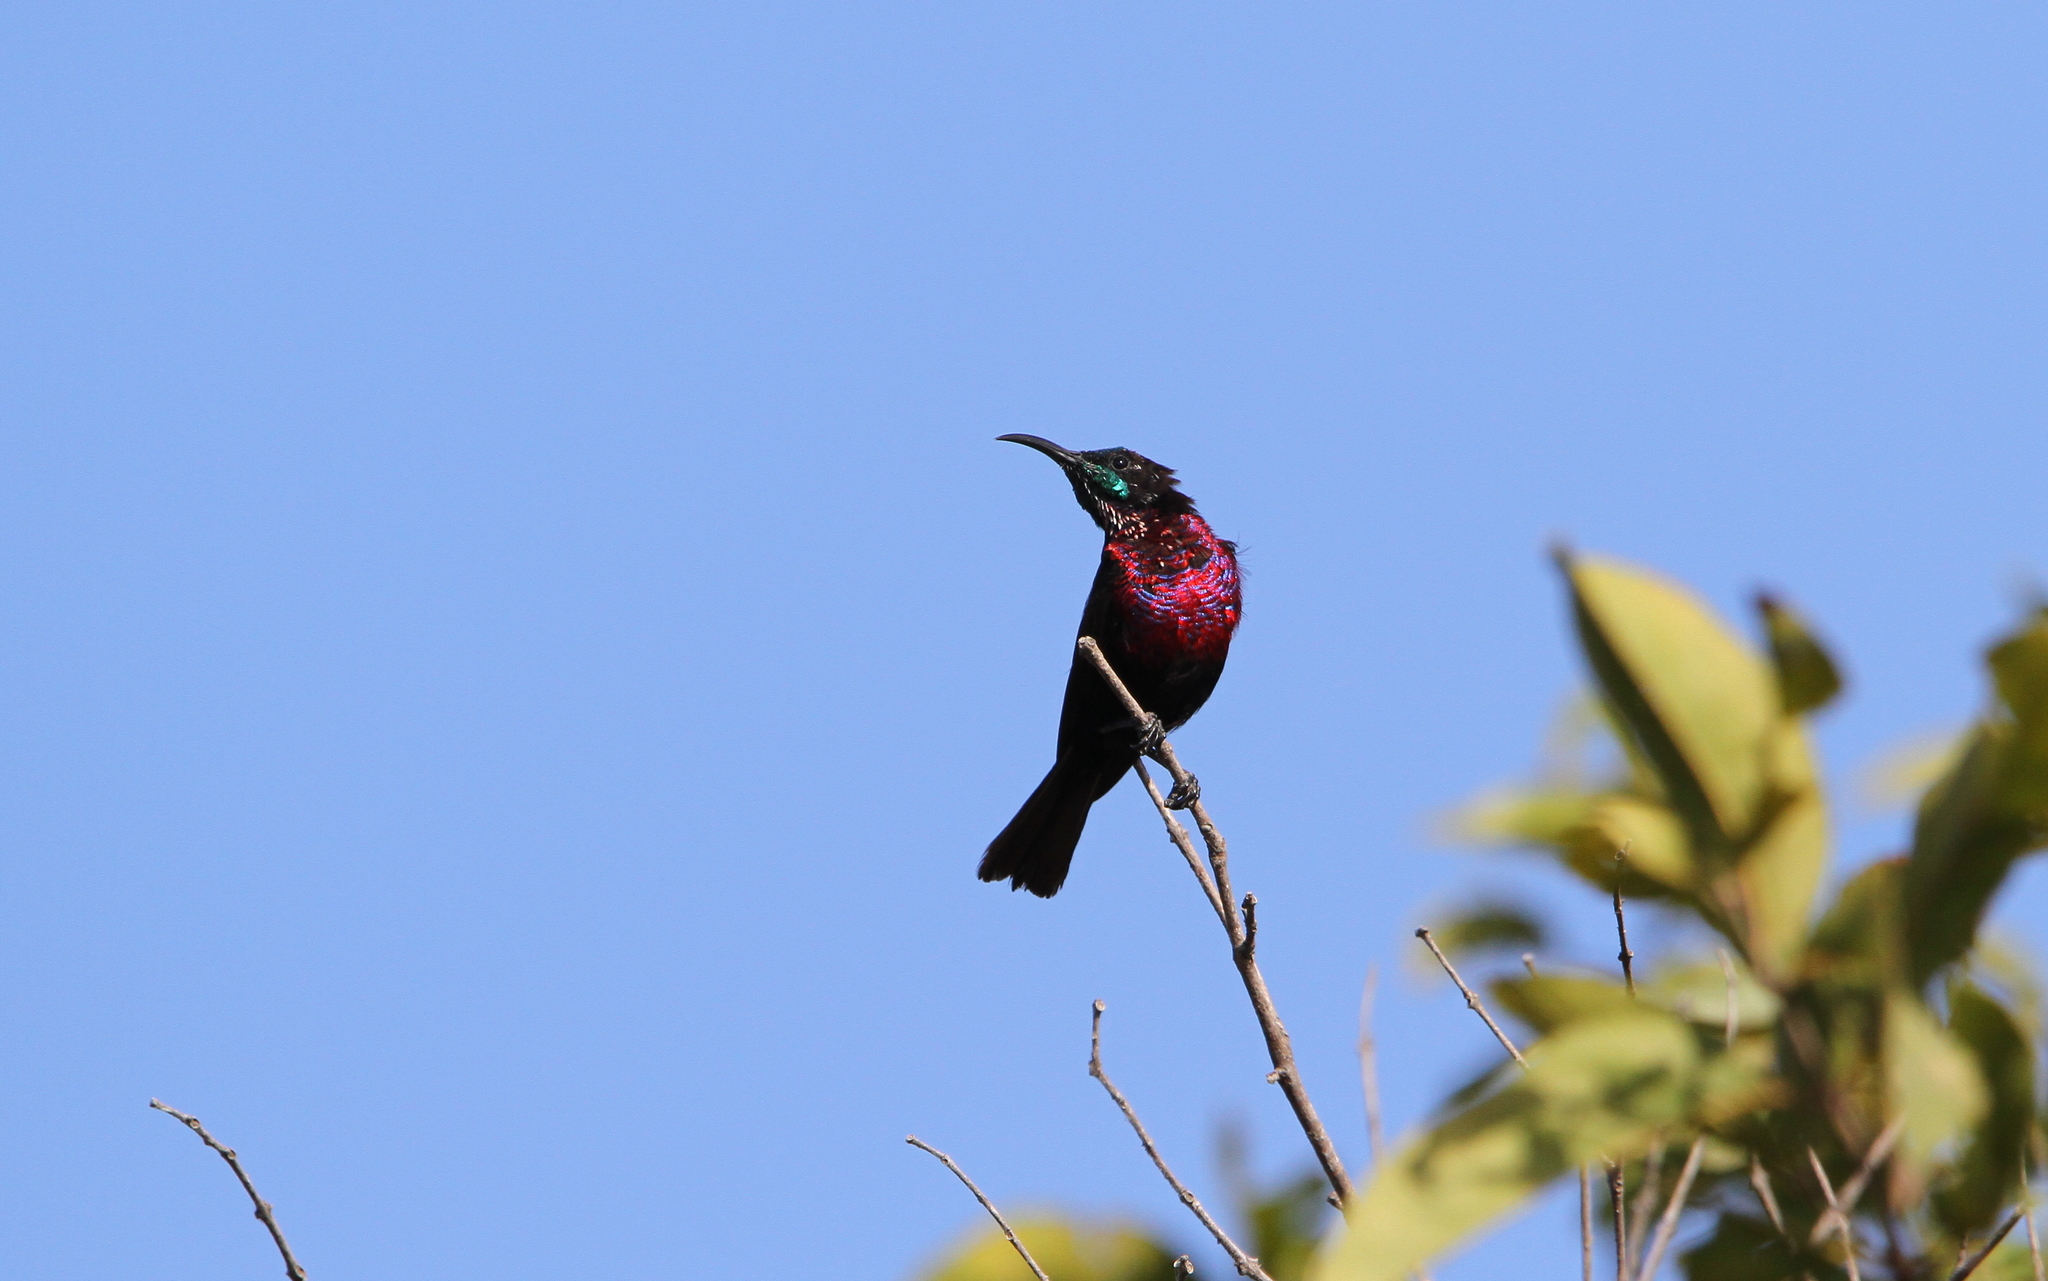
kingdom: Animalia
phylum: Chordata
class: Aves
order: Passeriformes
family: Nectariniidae
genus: Chalcomitra
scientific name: Chalcomitra senegalensis
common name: Scarlet-chested sunbird
